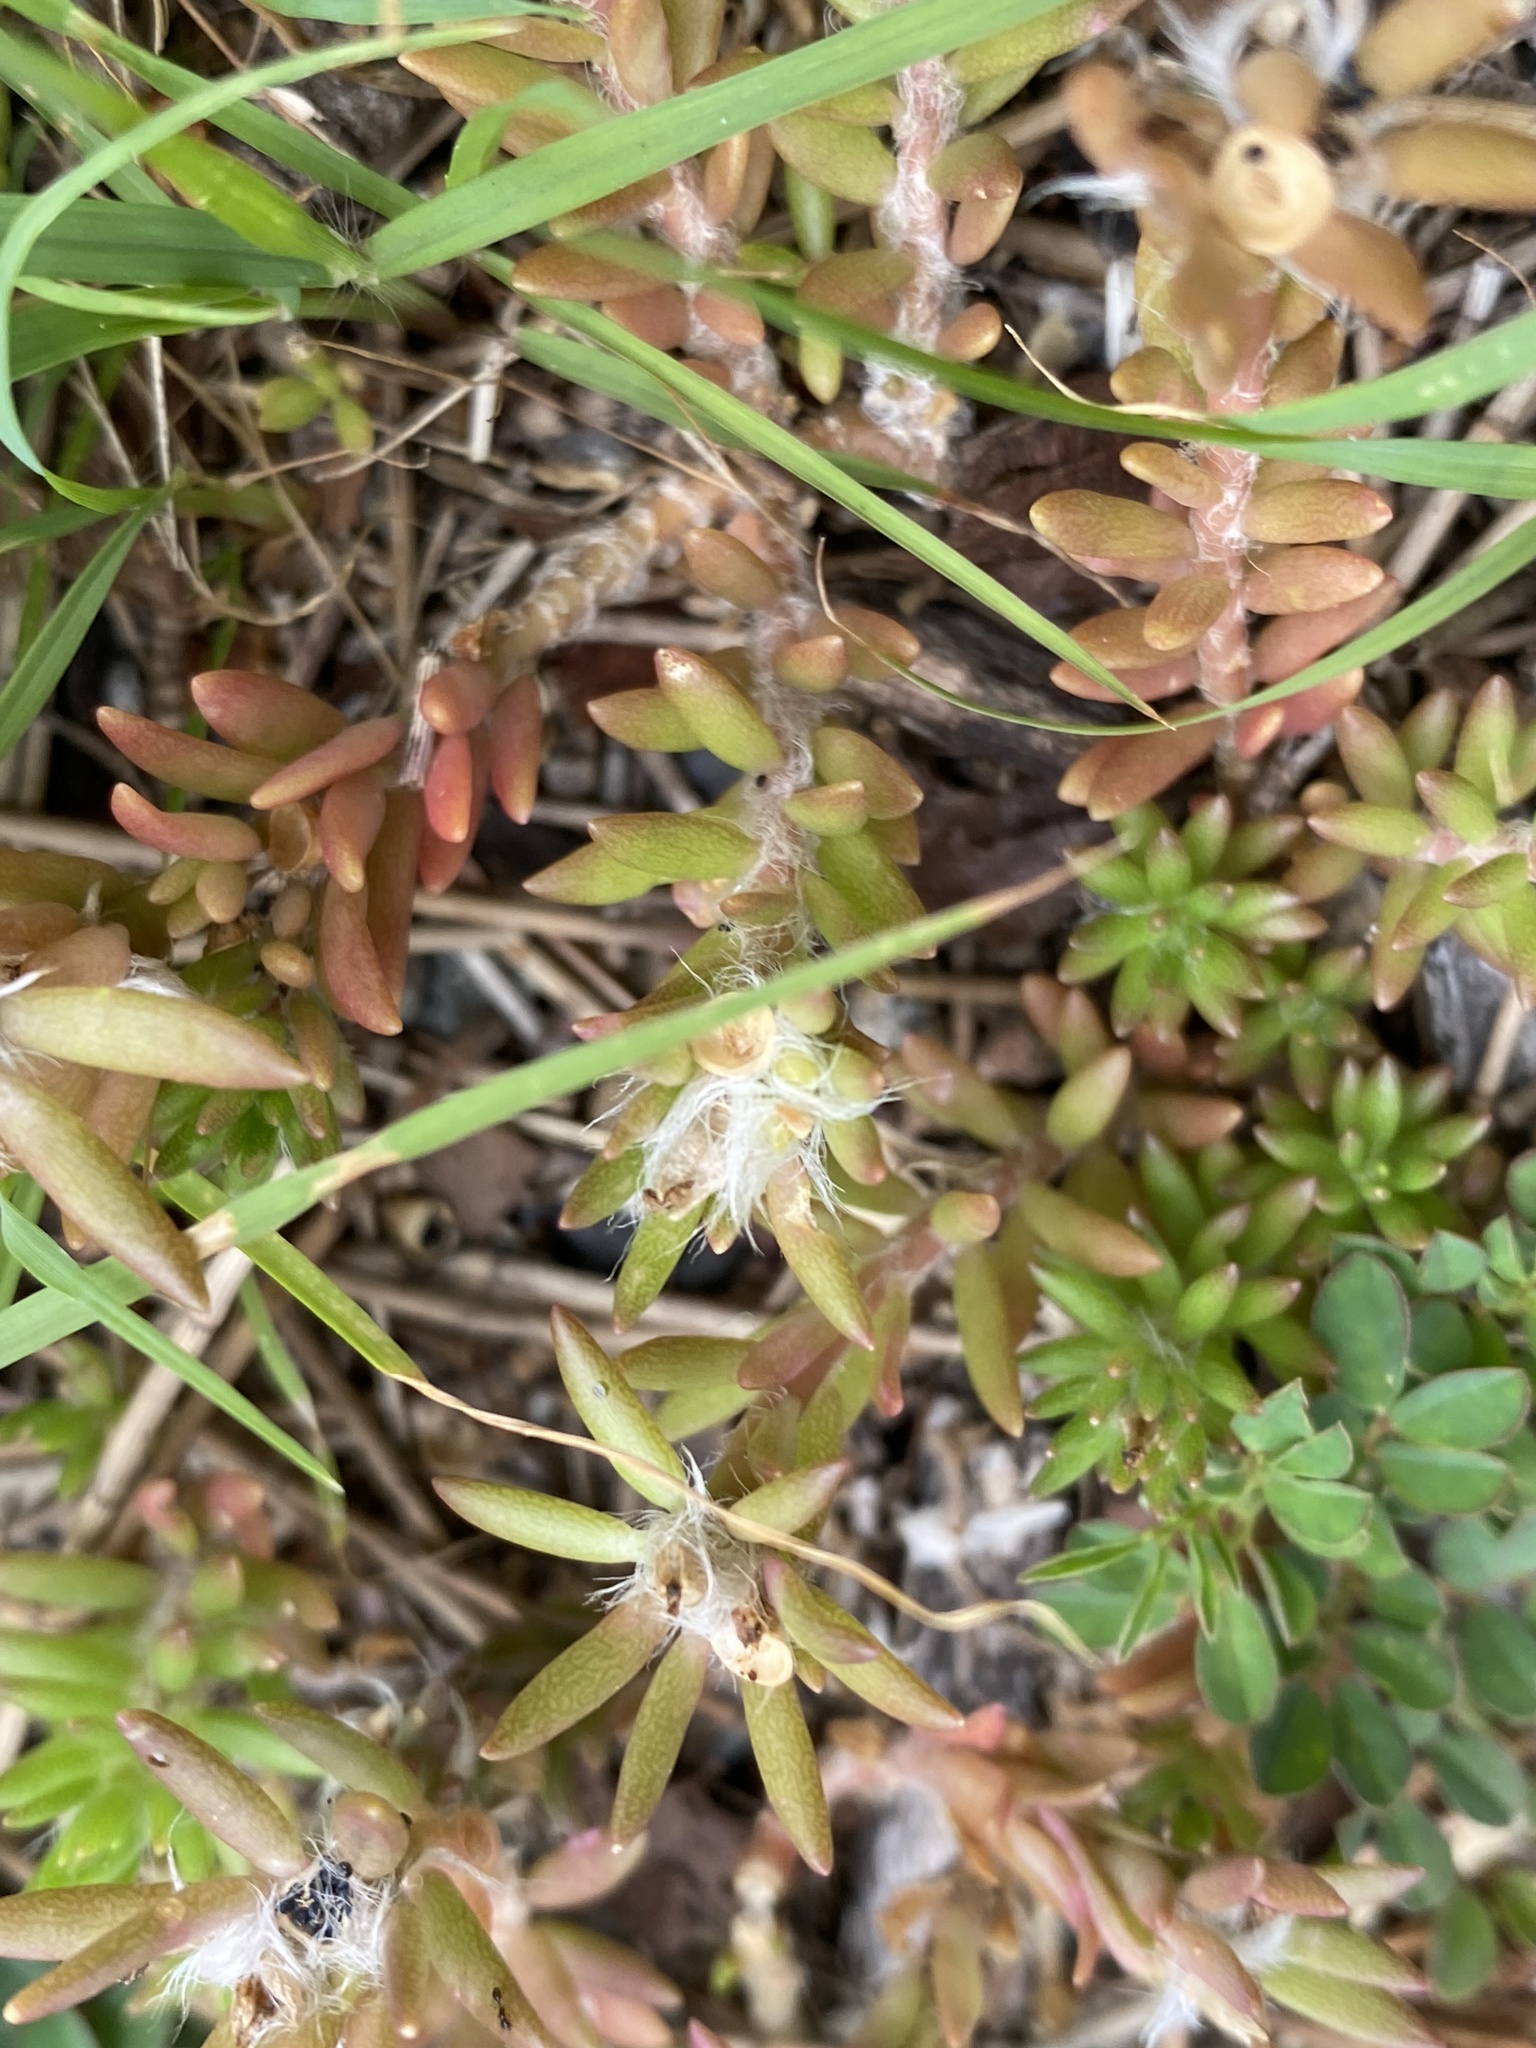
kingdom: Plantae
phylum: Tracheophyta
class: Magnoliopsida
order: Caryophyllales
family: Portulacaceae
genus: Portulaca
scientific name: Portulaca pilosa
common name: Kiss me quick
